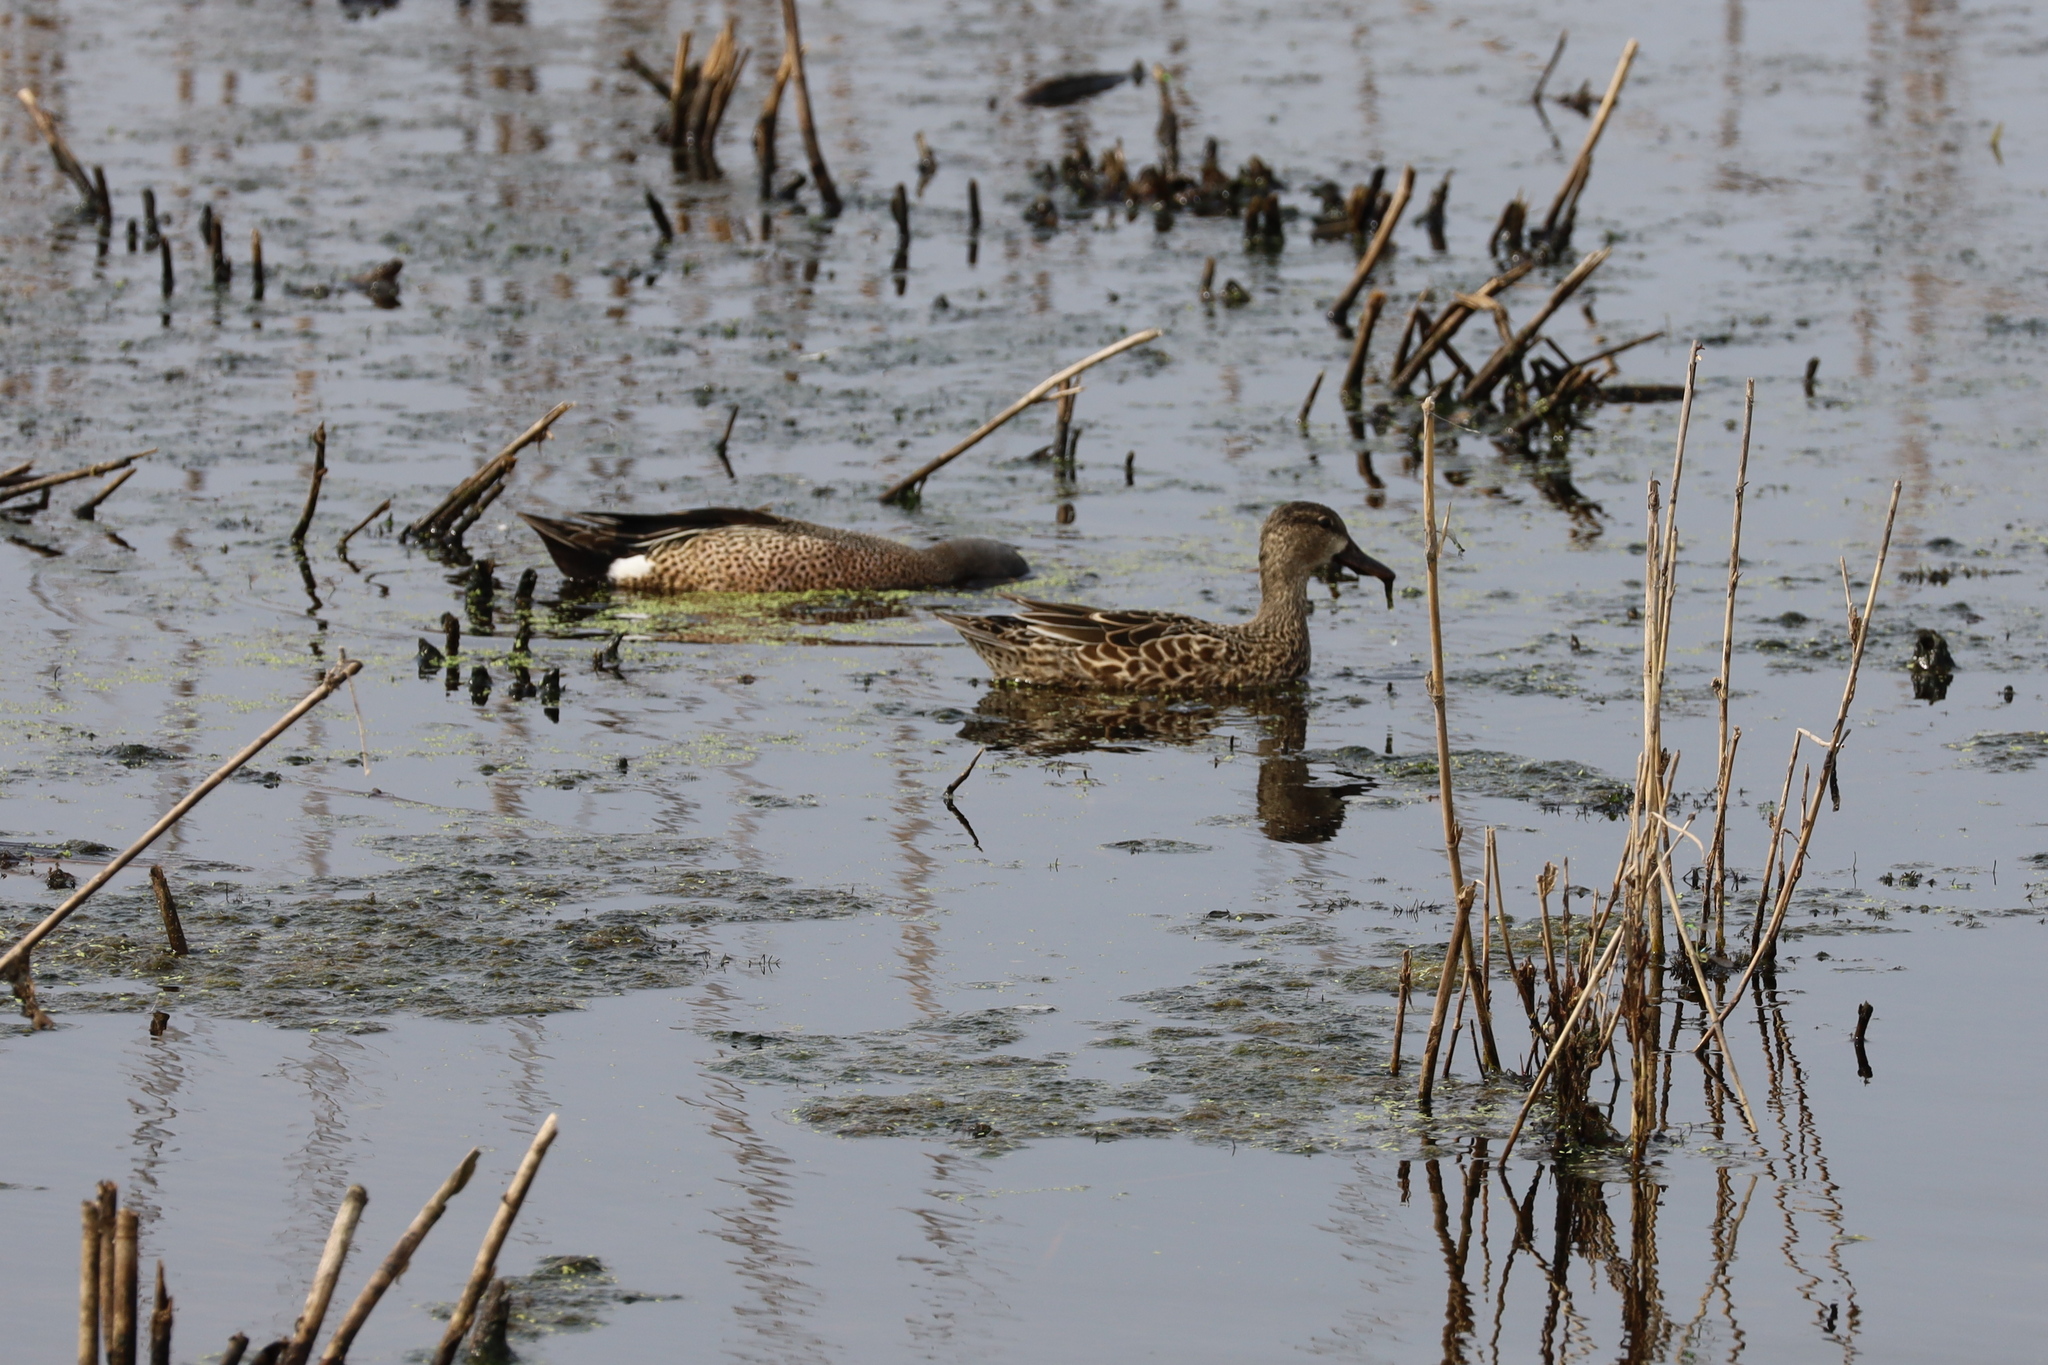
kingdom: Animalia
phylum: Chordata
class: Aves
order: Anseriformes
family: Anatidae
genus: Spatula
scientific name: Spatula discors
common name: Blue-winged teal
